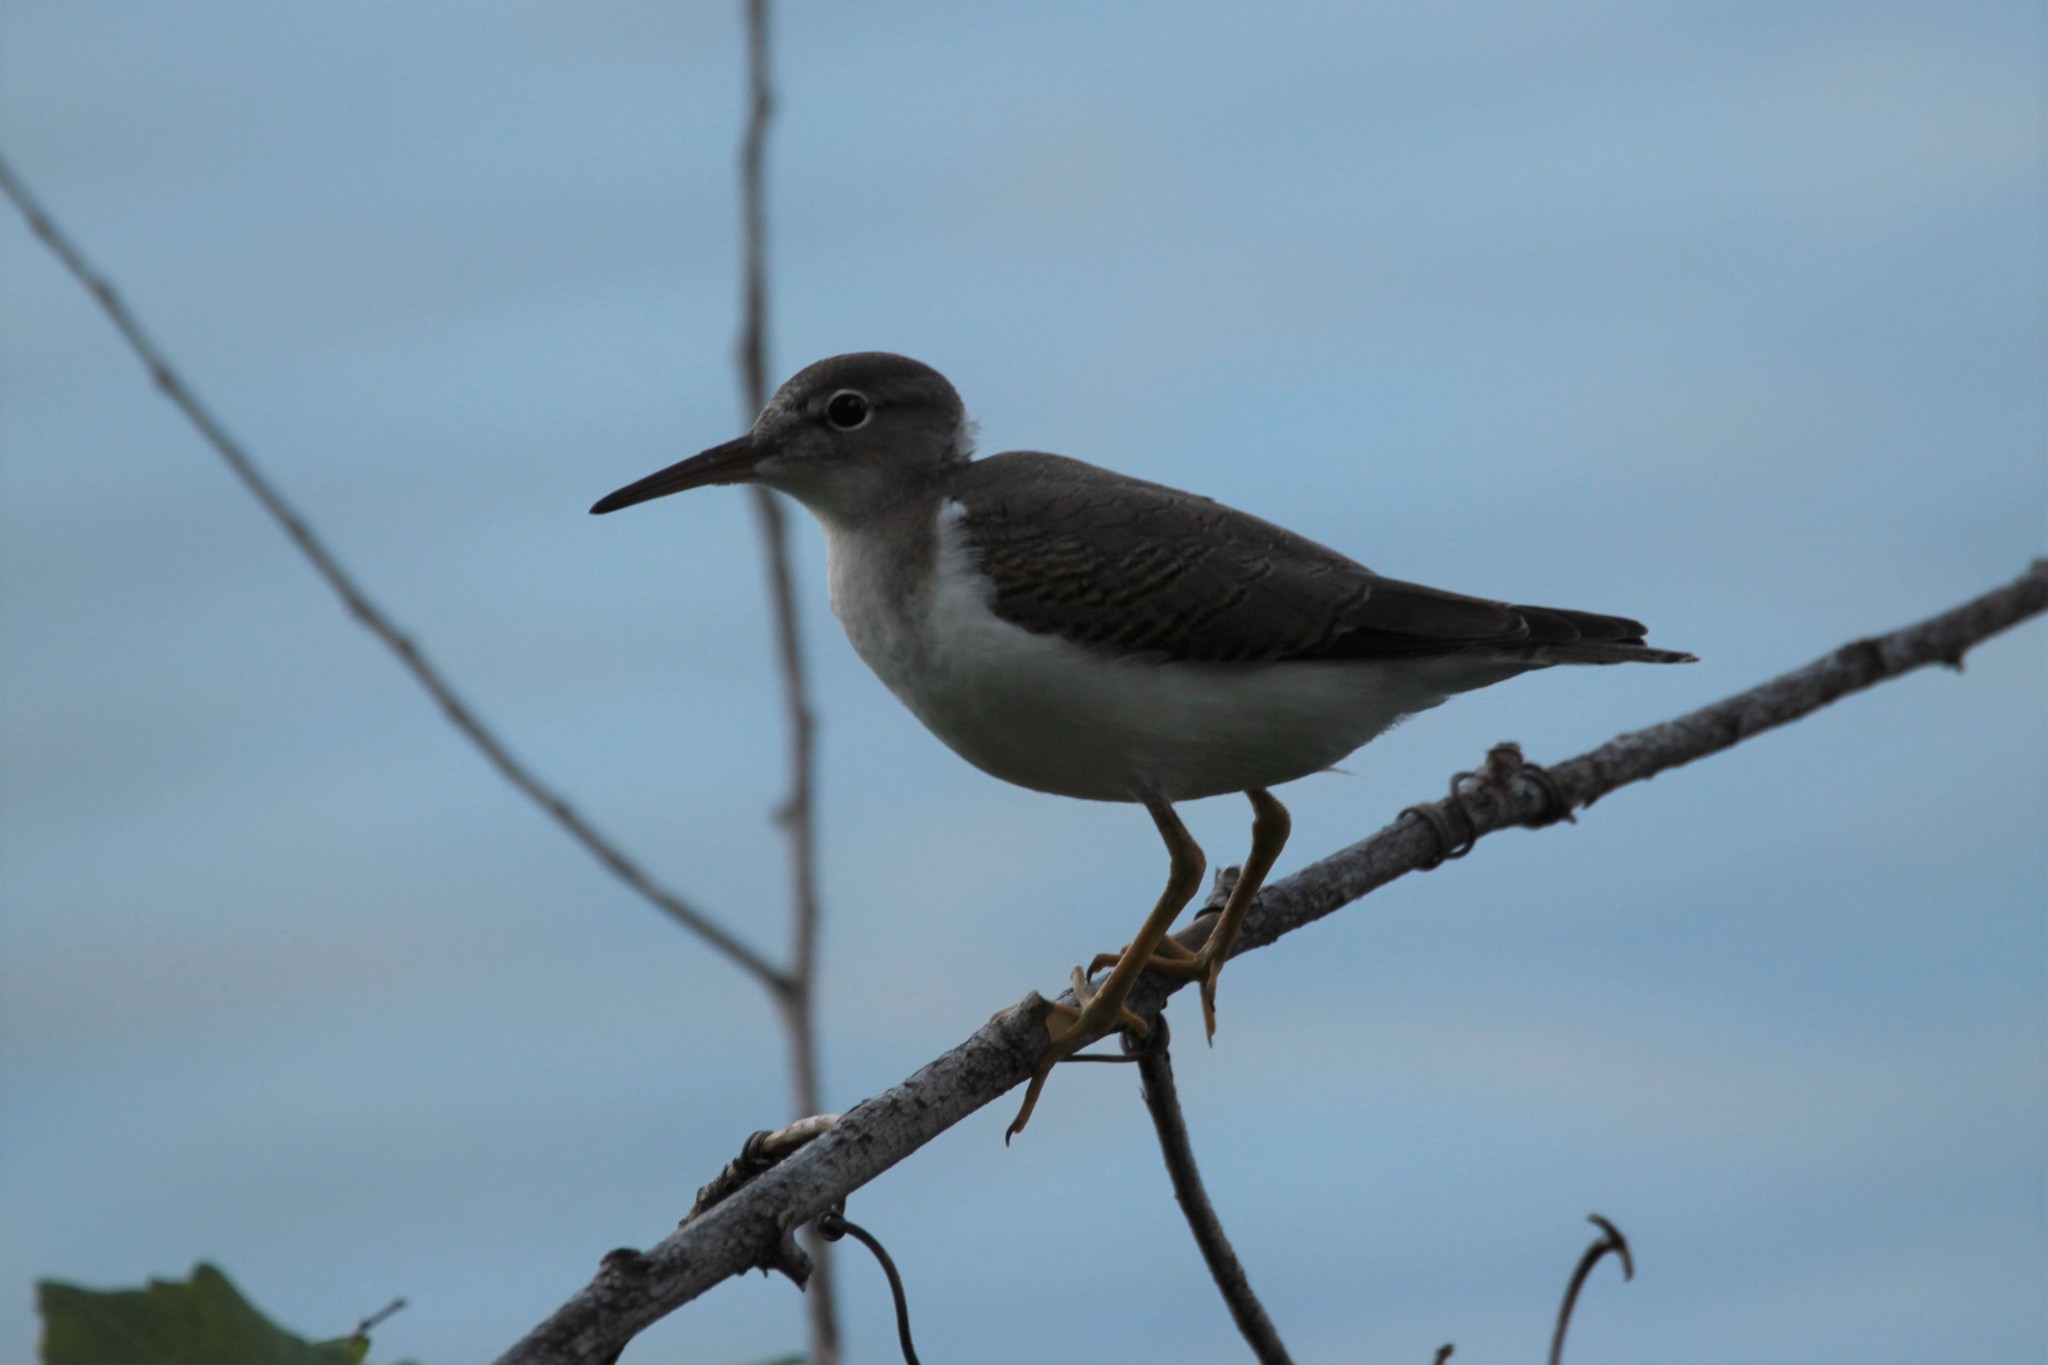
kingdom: Animalia
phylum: Chordata
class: Aves
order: Charadriiformes
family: Scolopacidae
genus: Actitis
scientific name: Actitis macularius
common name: Spotted sandpiper
